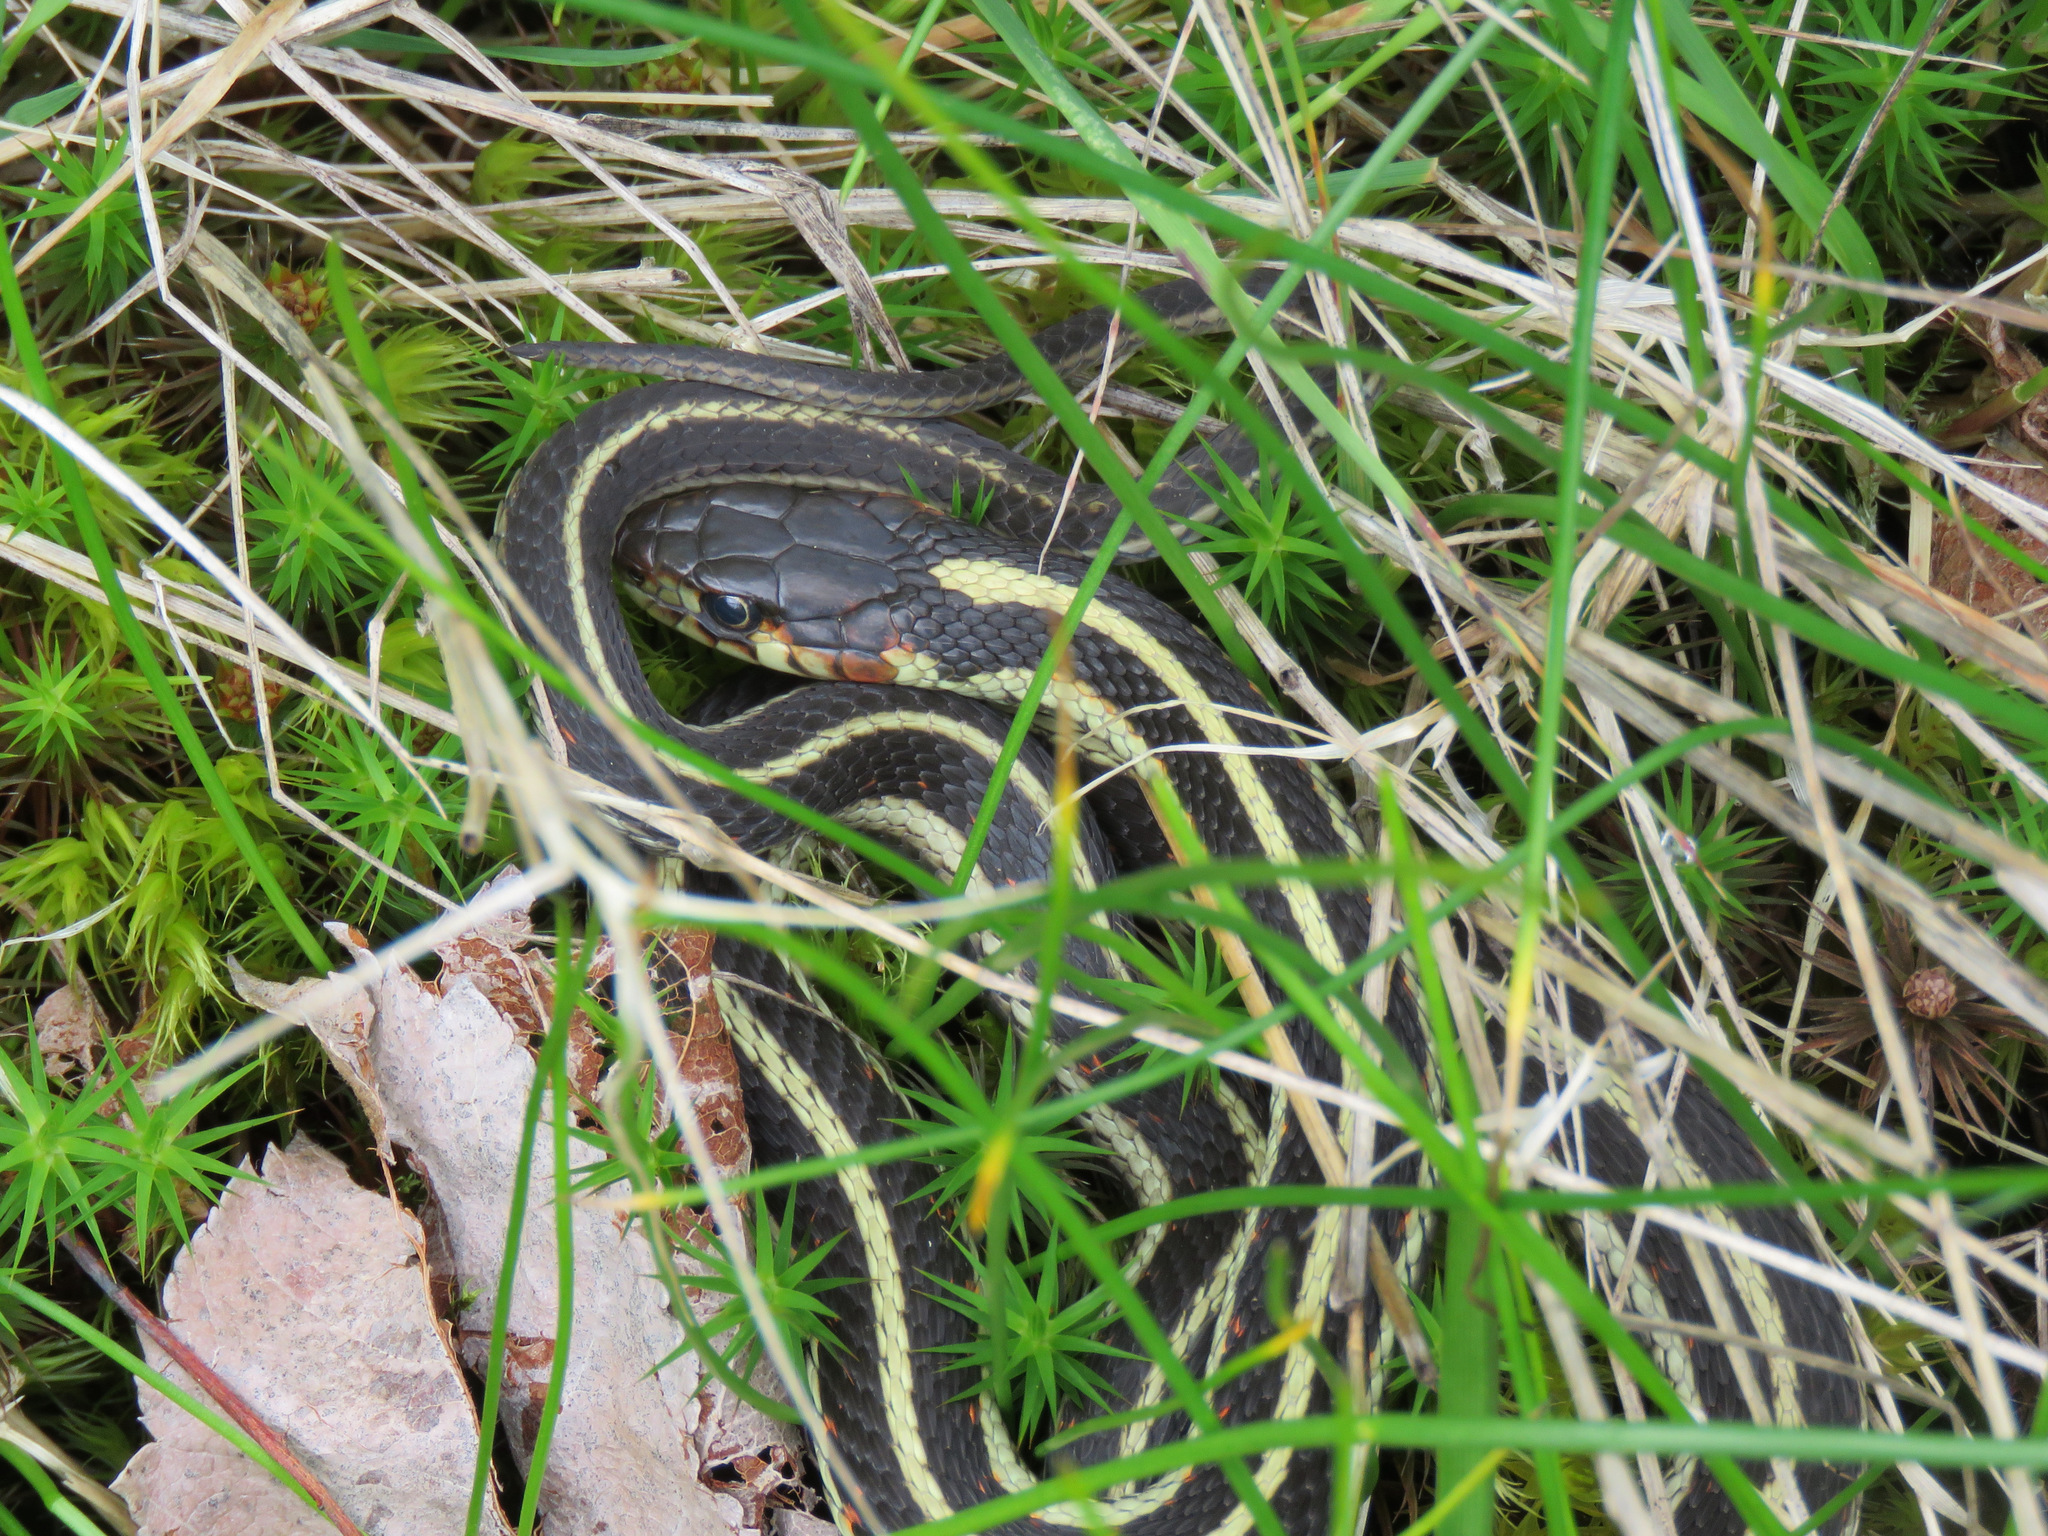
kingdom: Animalia
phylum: Chordata
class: Squamata
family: Colubridae
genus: Thamnophis
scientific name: Thamnophis sirtalis
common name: Common garter snake
